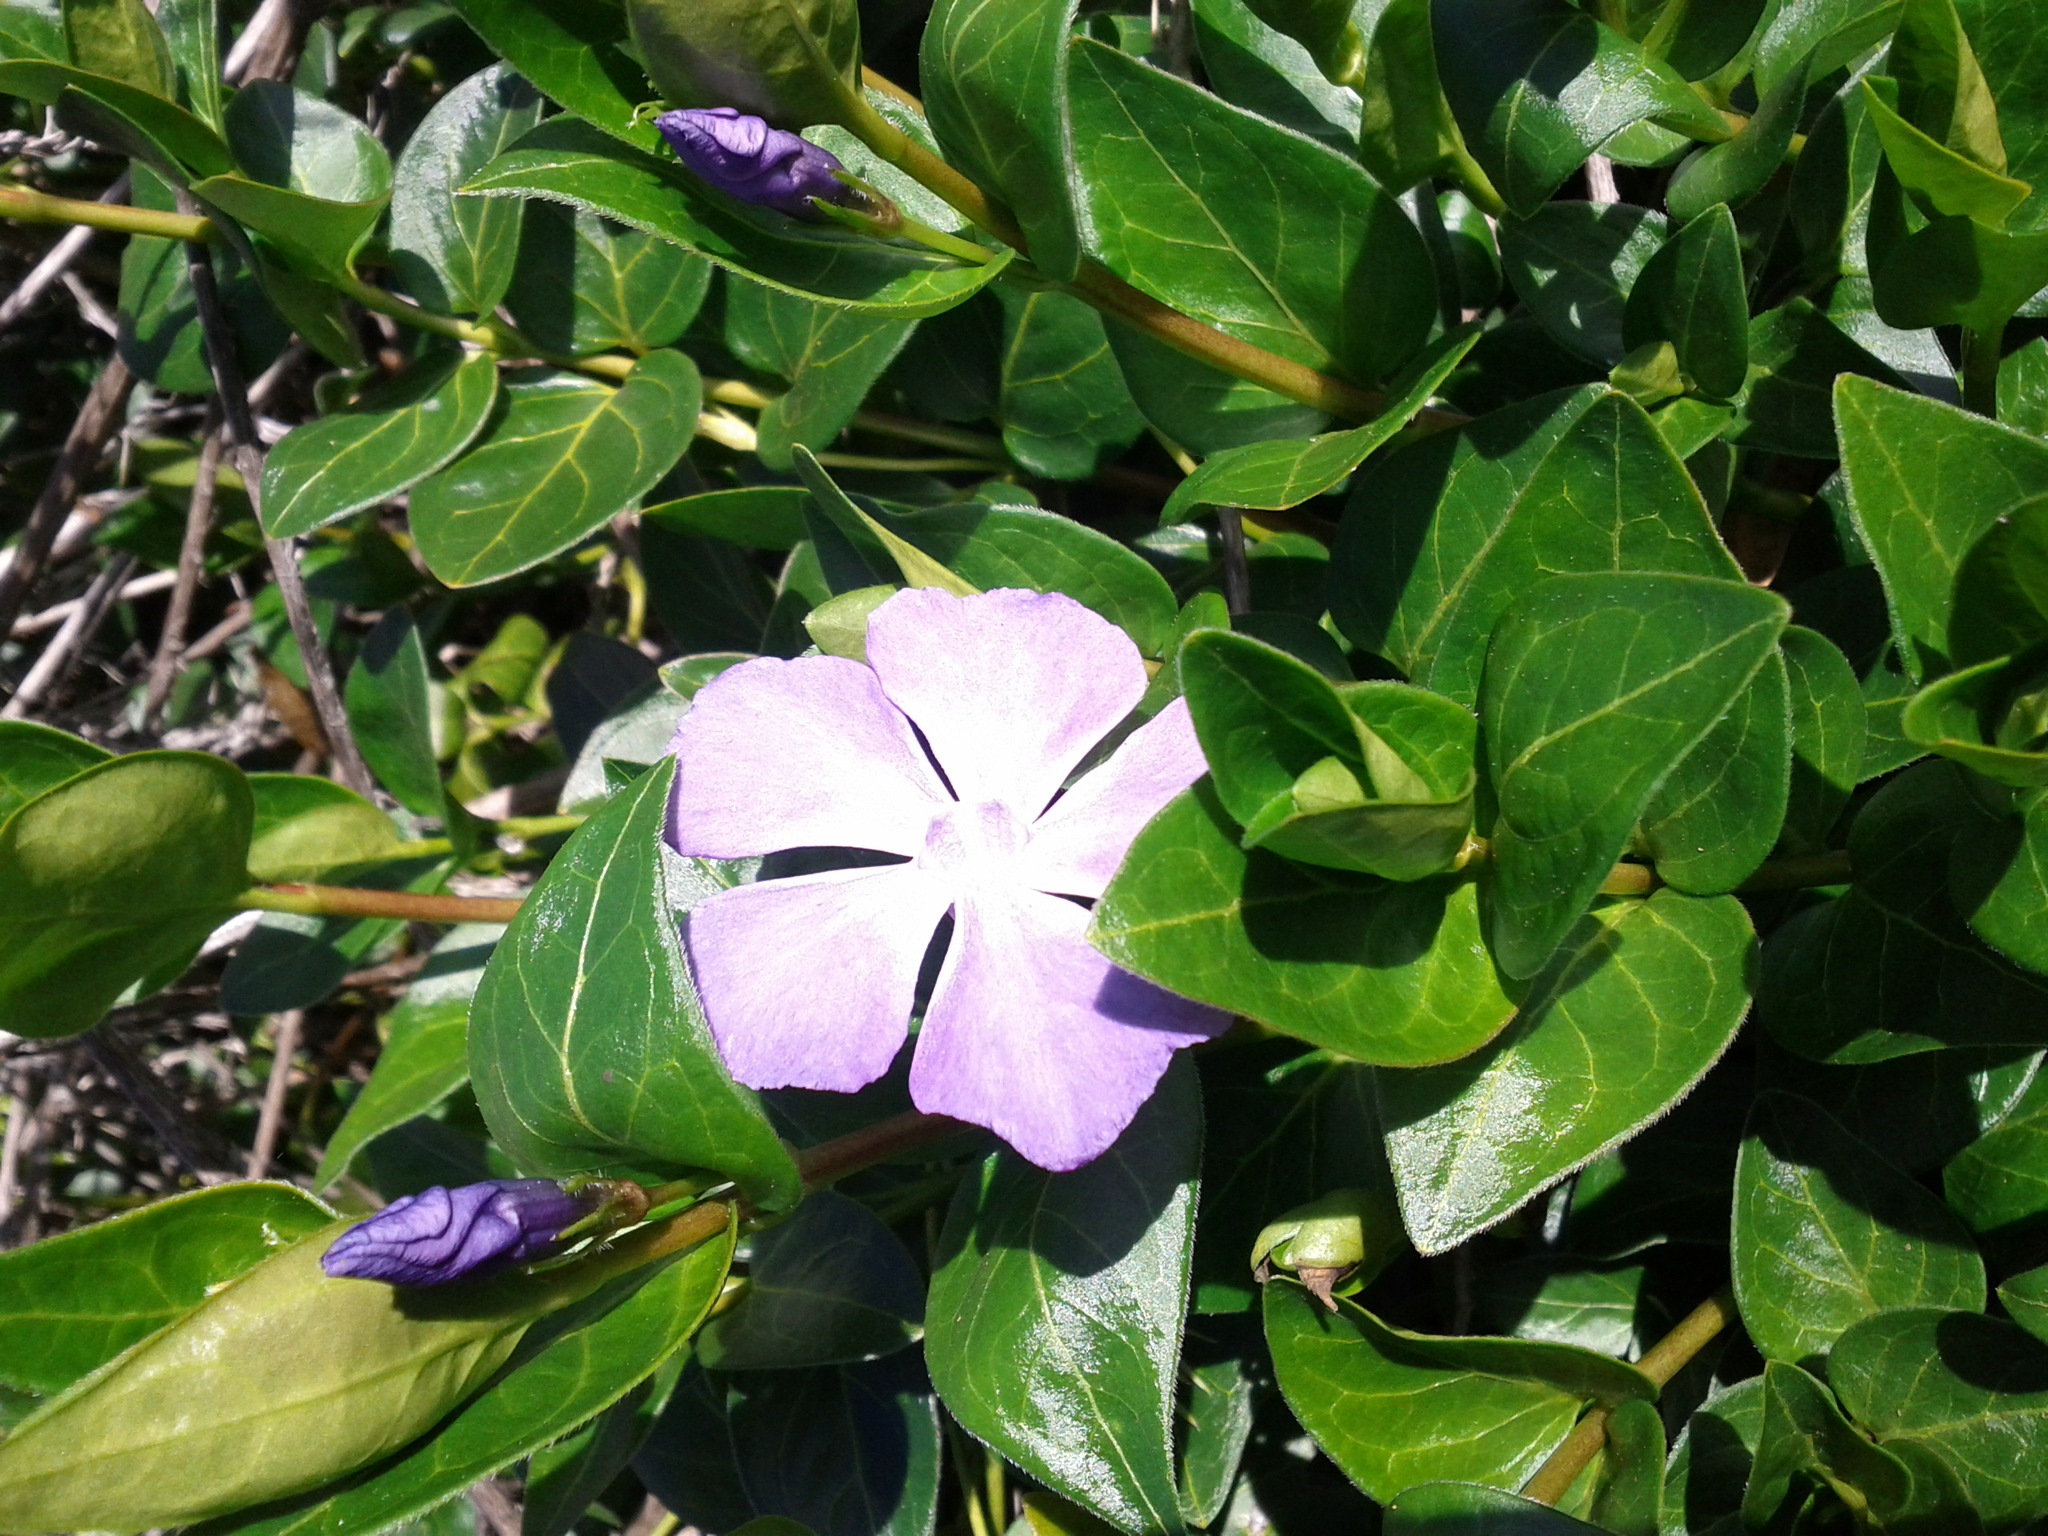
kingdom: Plantae
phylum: Tracheophyta
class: Magnoliopsida
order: Gentianales
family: Apocynaceae
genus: Vinca
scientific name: Vinca major
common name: Greater periwinkle
